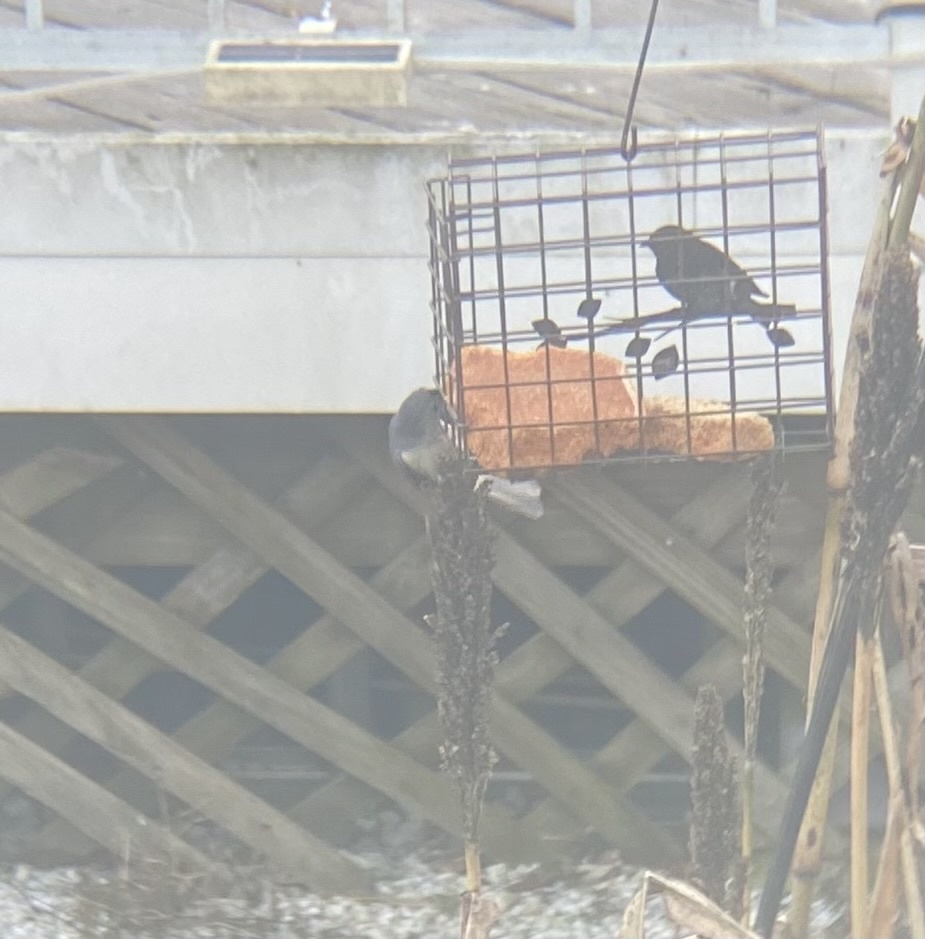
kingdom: Animalia
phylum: Chordata
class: Aves
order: Passeriformes
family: Paridae
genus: Baeolophus
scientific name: Baeolophus bicolor
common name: Tufted titmouse
